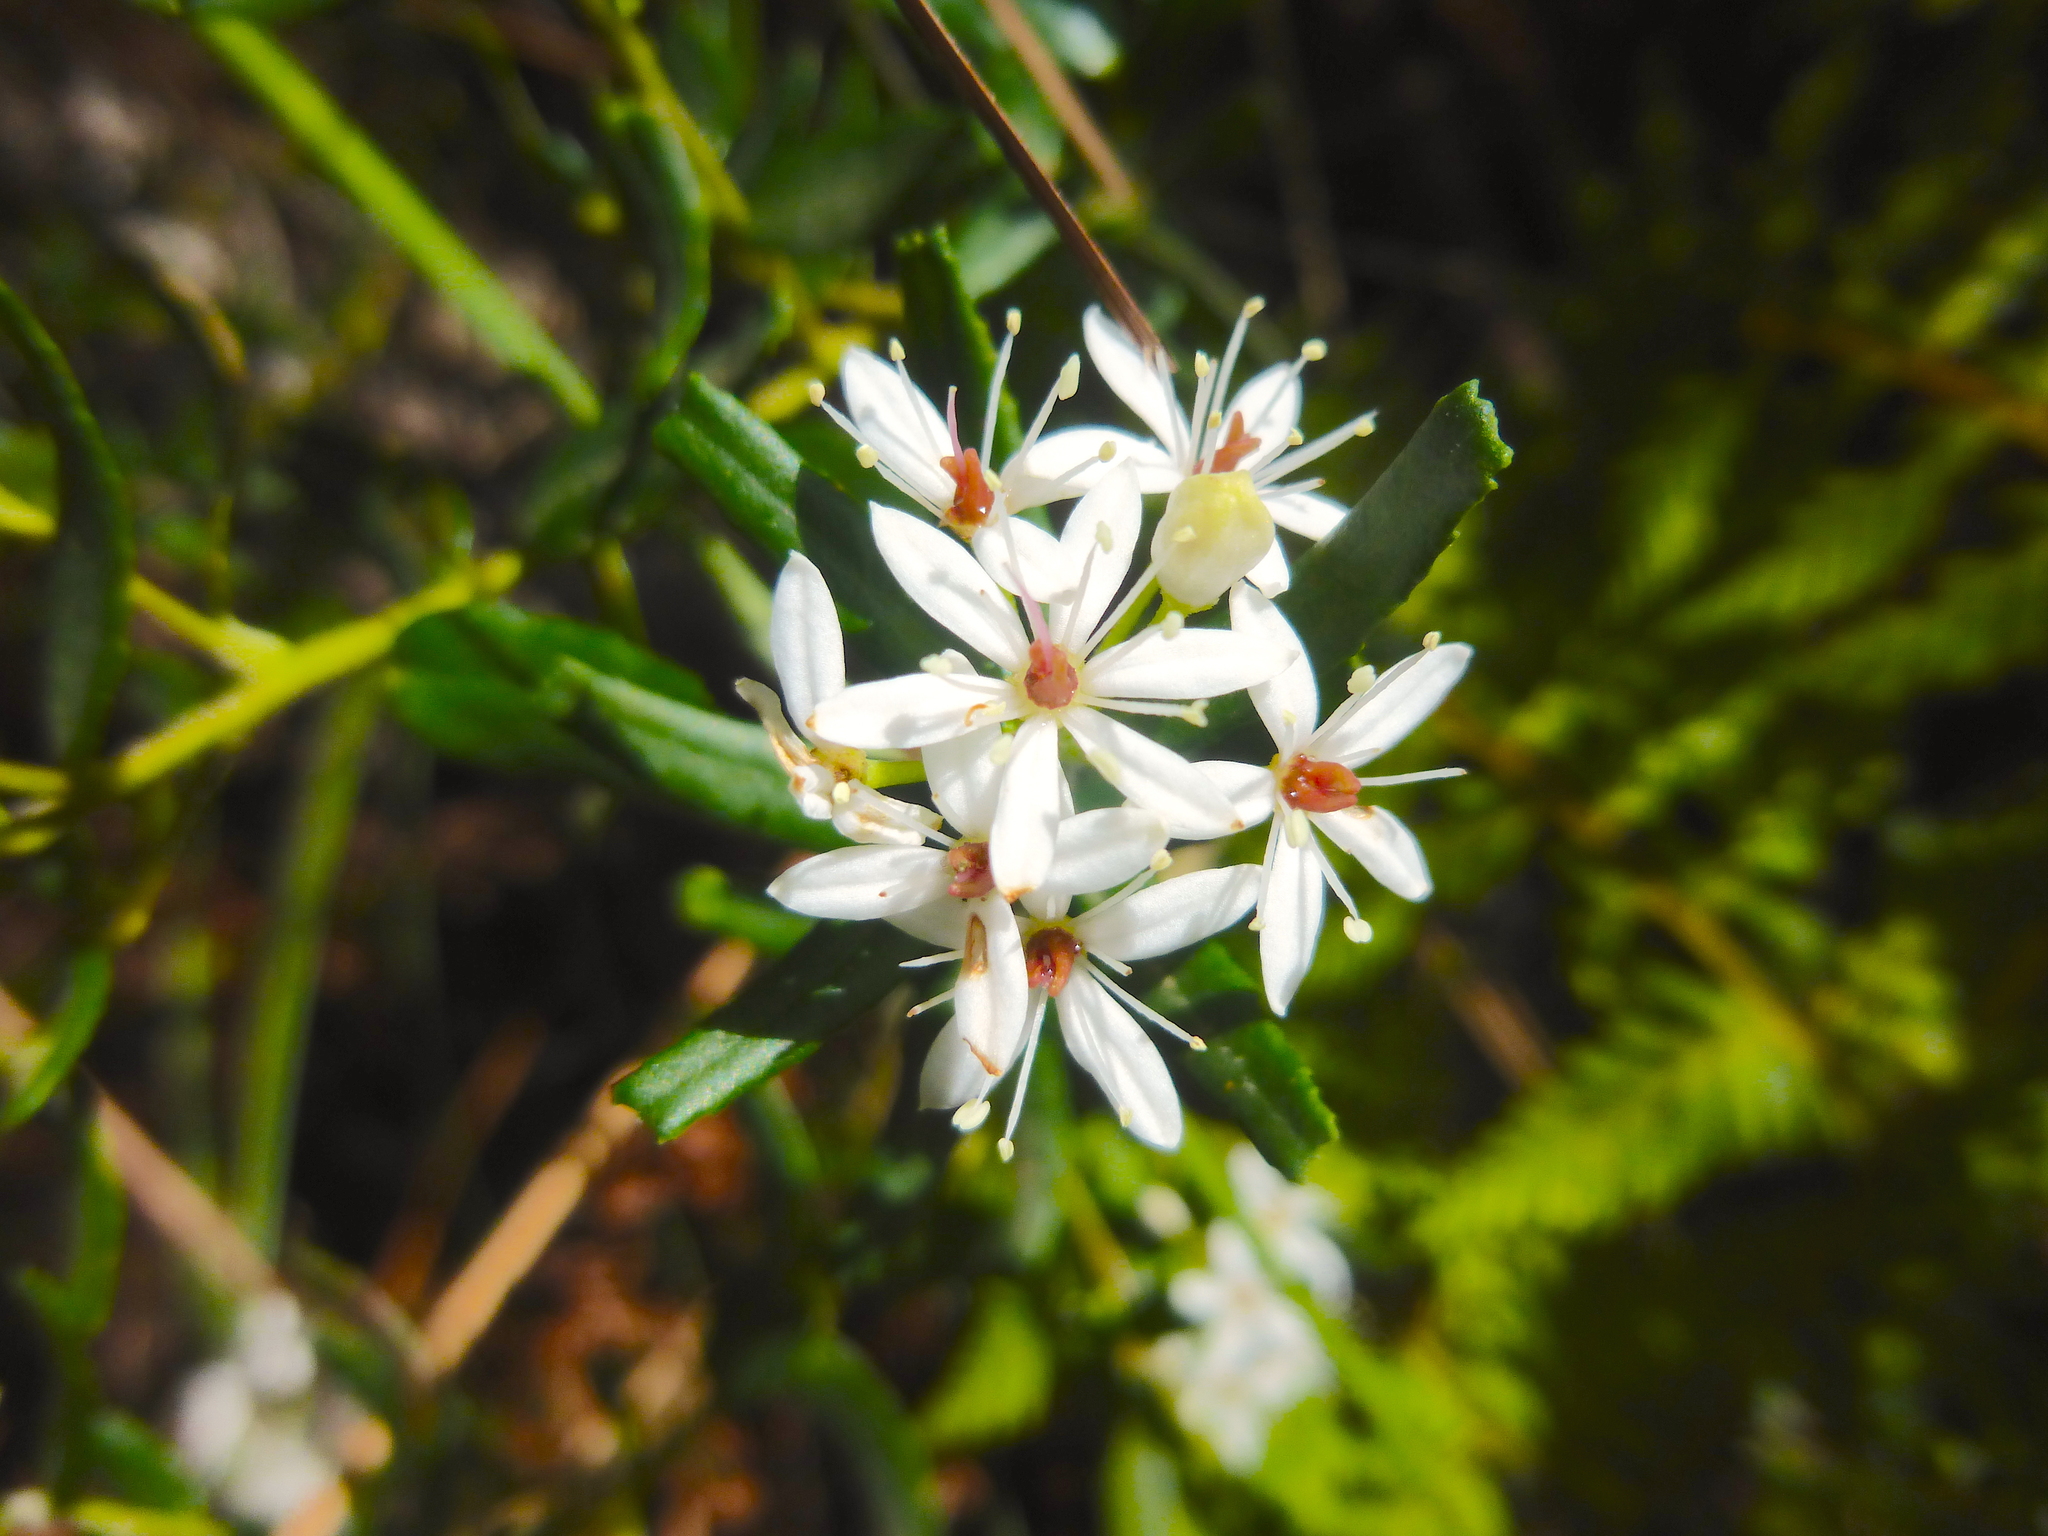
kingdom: Plantae
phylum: Tracheophyta
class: Magnoliopsida
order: Sapindales
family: Rutaceae
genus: Leionema
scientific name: Leionema bilobum
